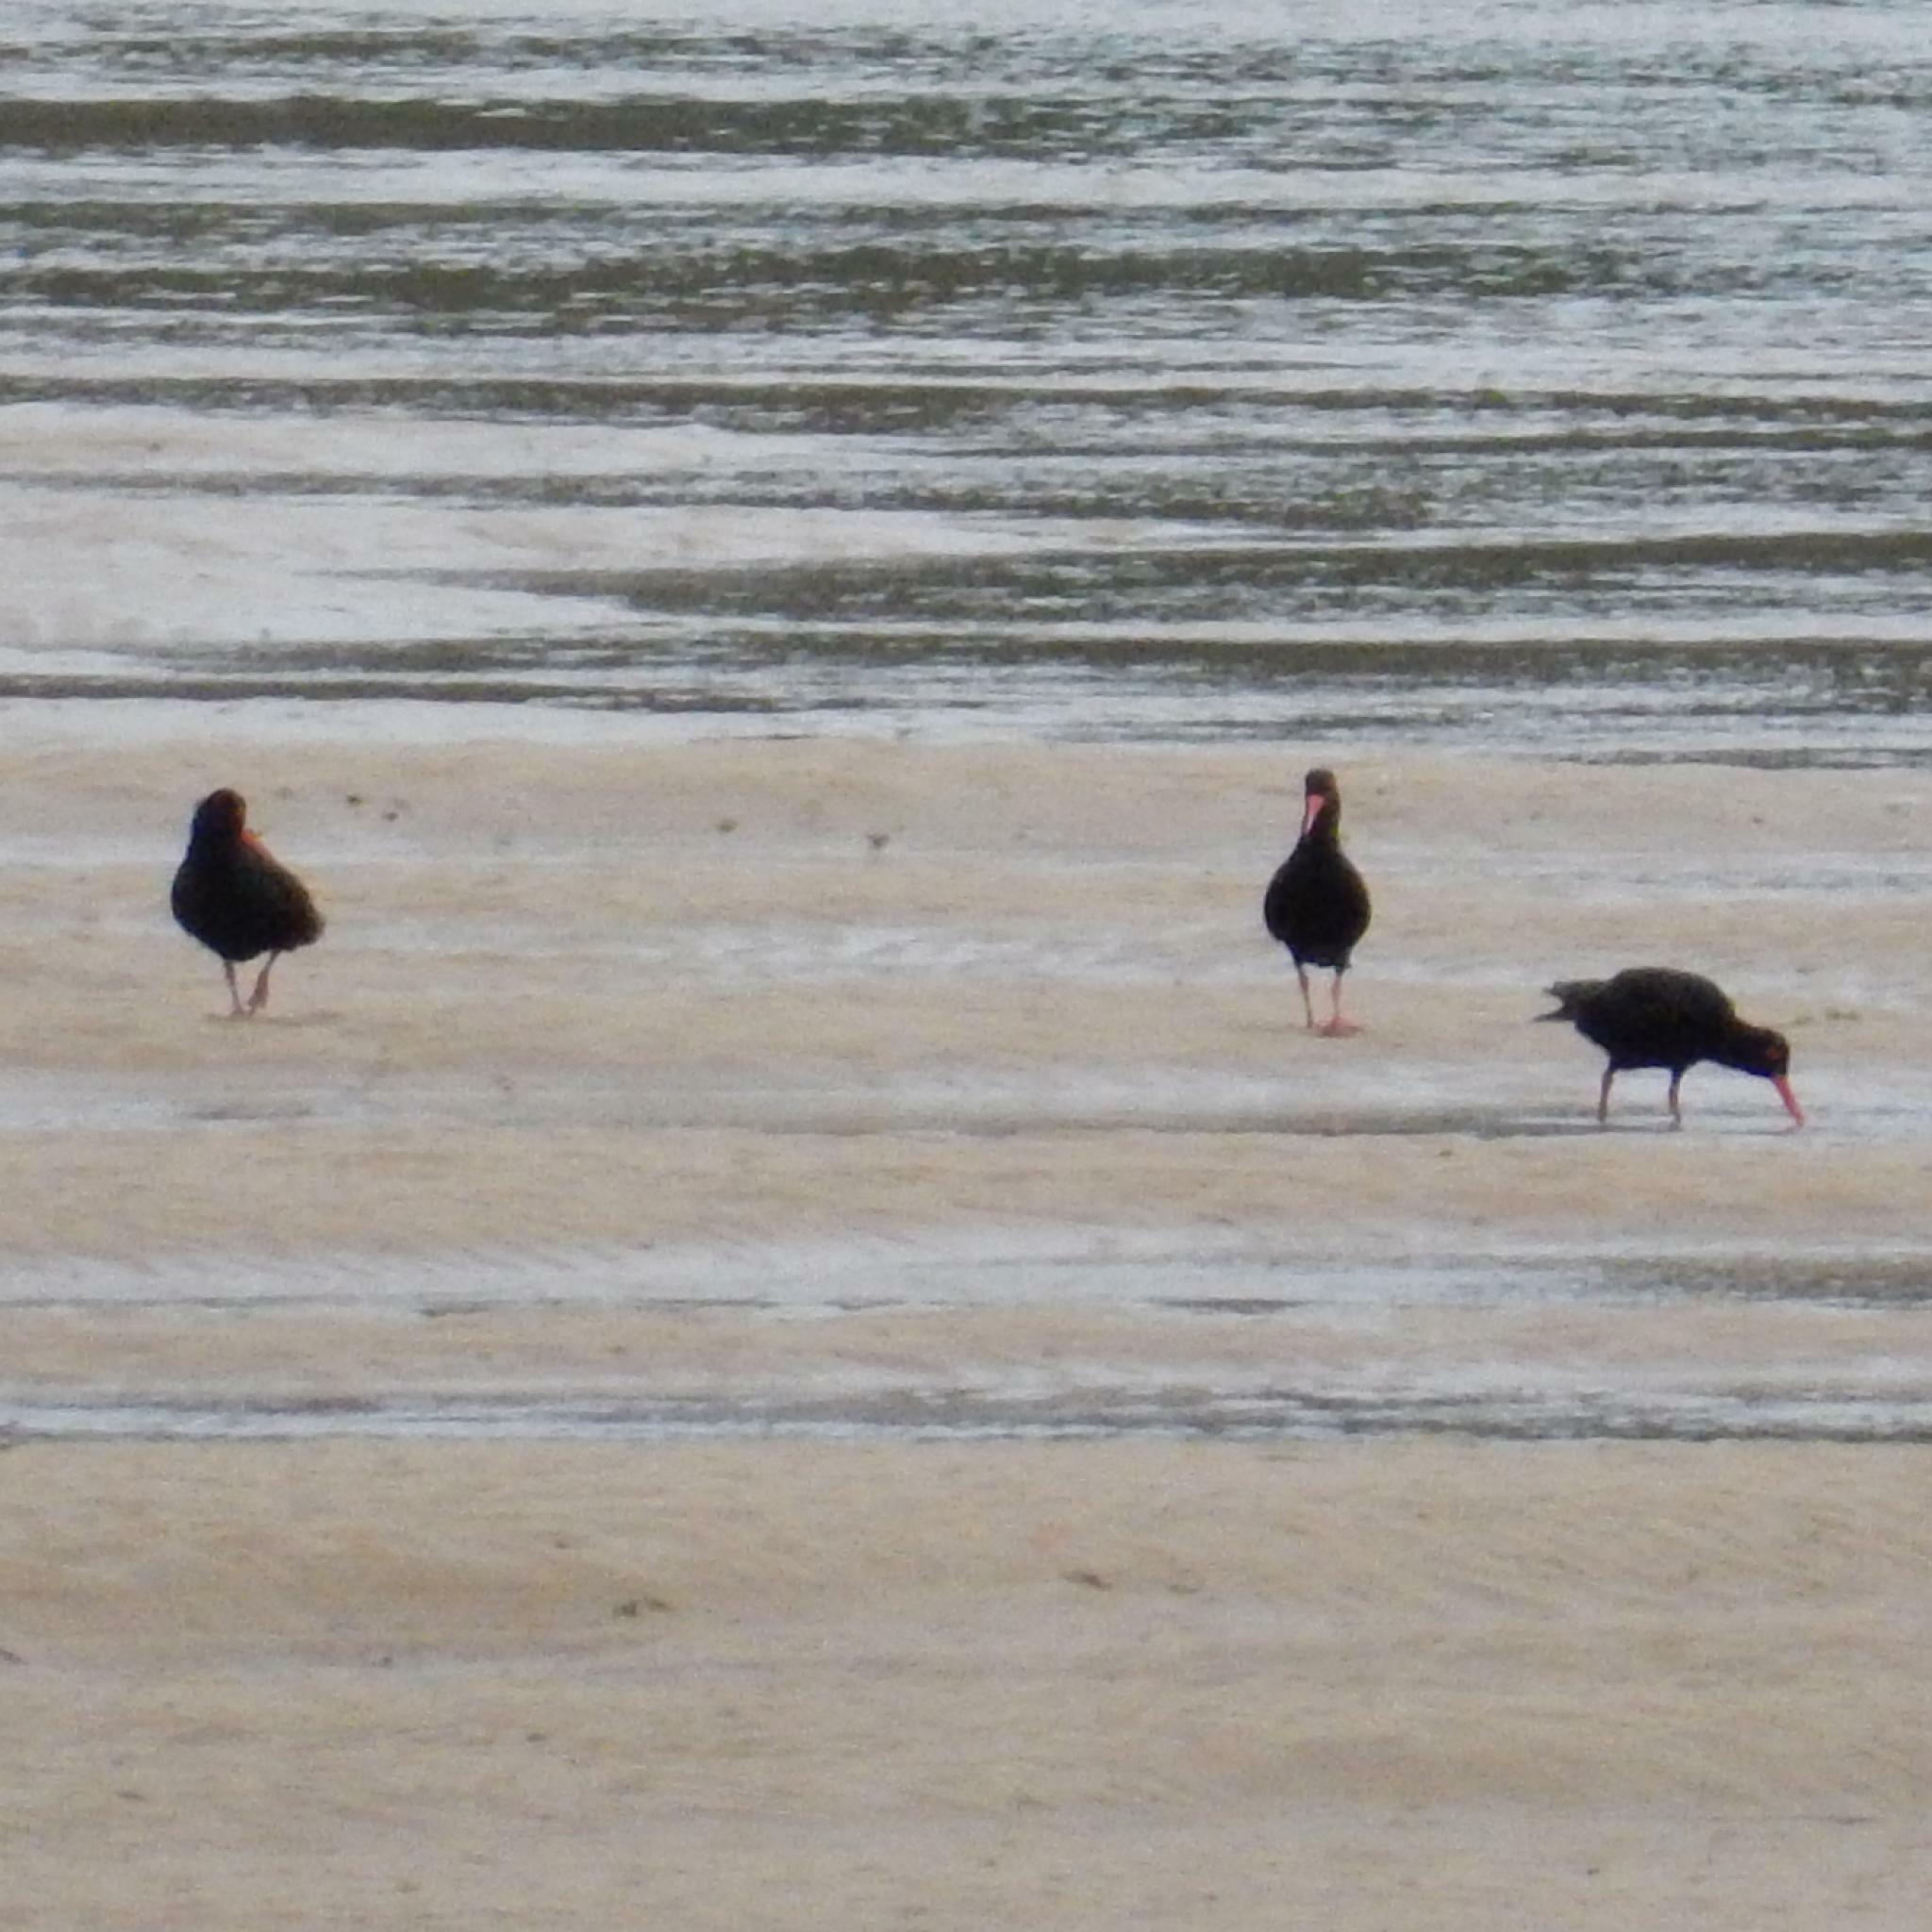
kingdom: Animalia
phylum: Chordata
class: Aves
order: Charadriiformes
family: Haematopodidae
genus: Haematopus
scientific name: Haematopus moquini
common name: African oystercatcher
